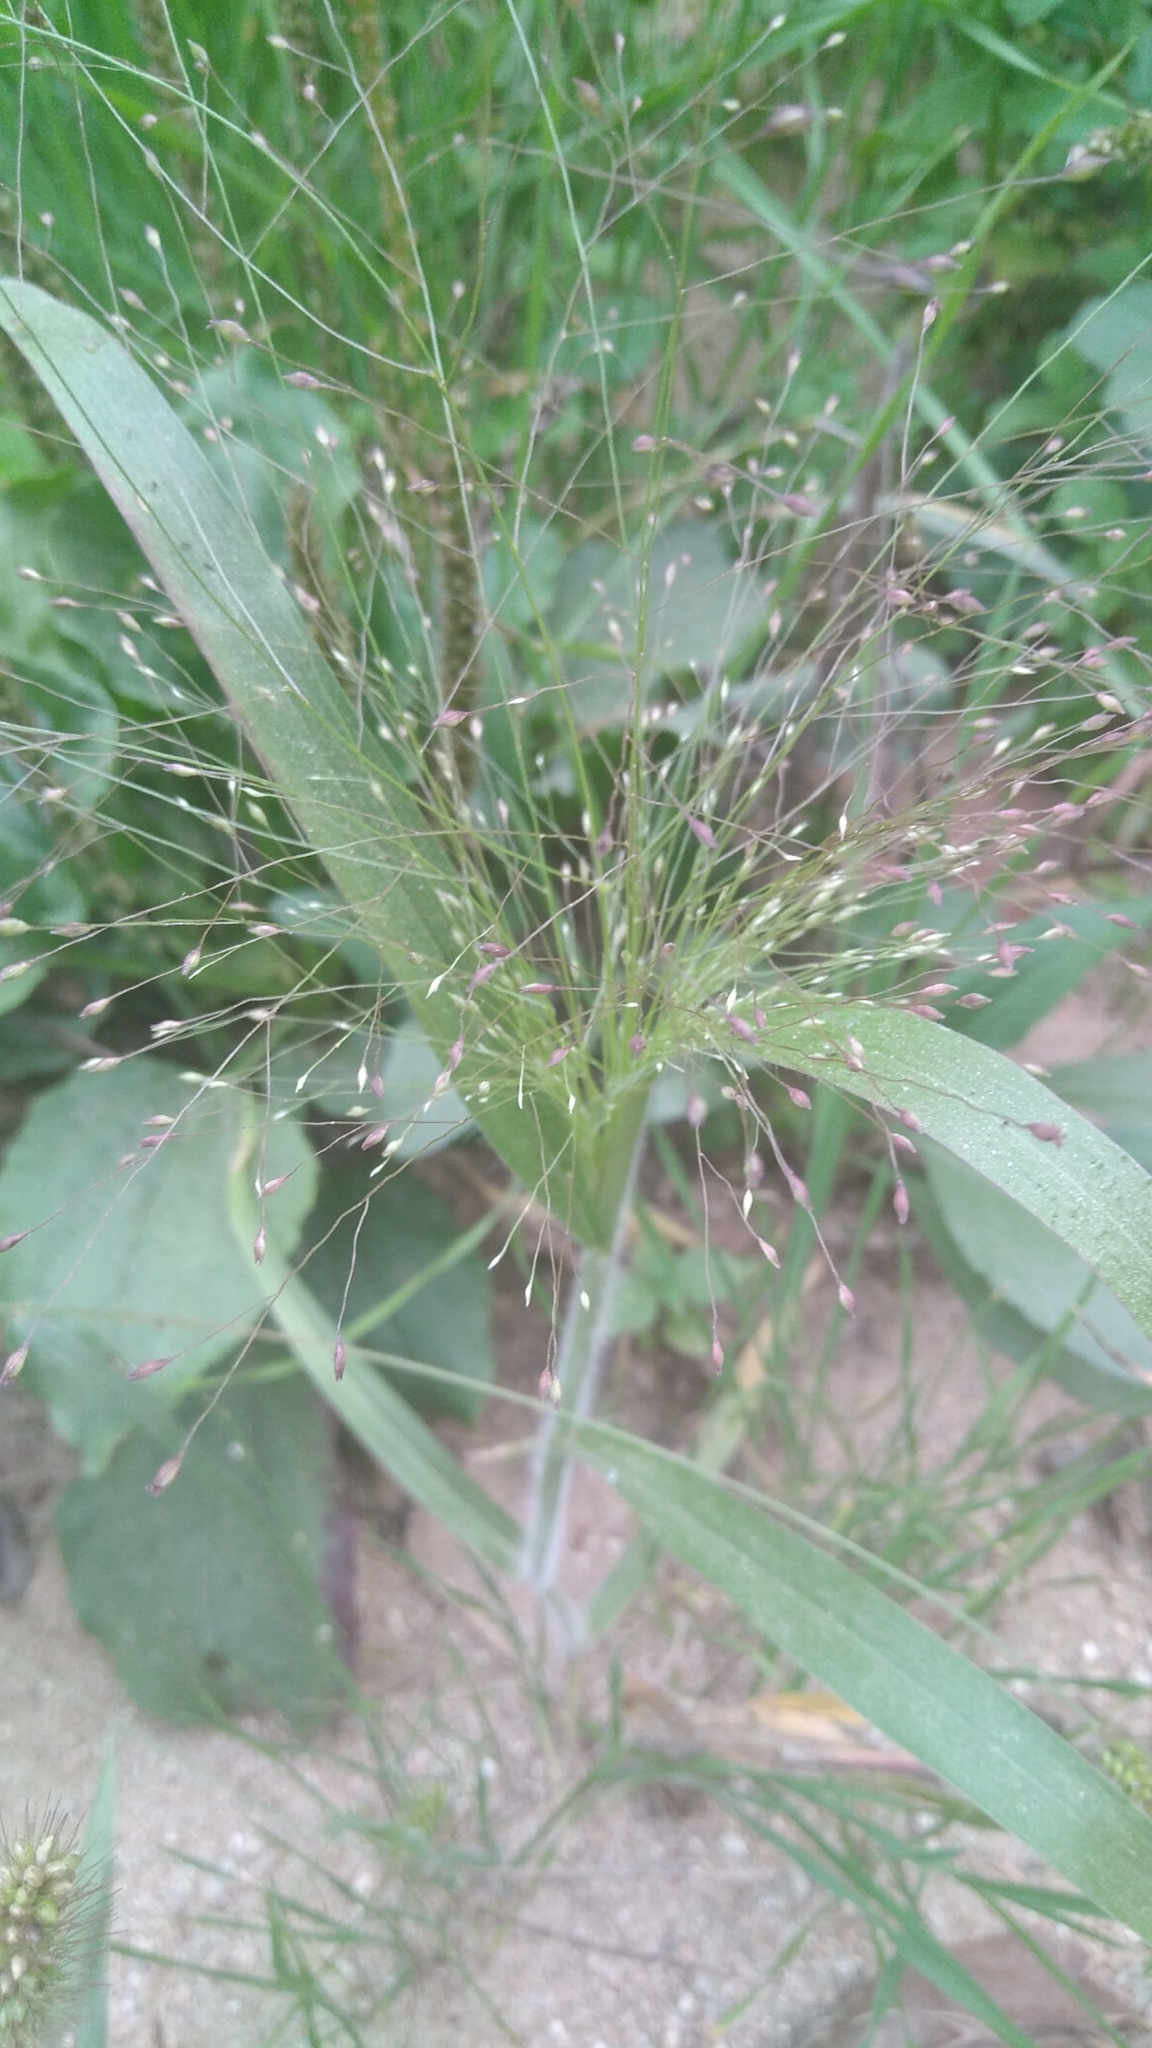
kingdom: Plantae
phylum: Tracheophyta
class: Liliopsida
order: Poales
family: Poaceae
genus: Panicum
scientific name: Panicum capillare
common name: Witch-grass
